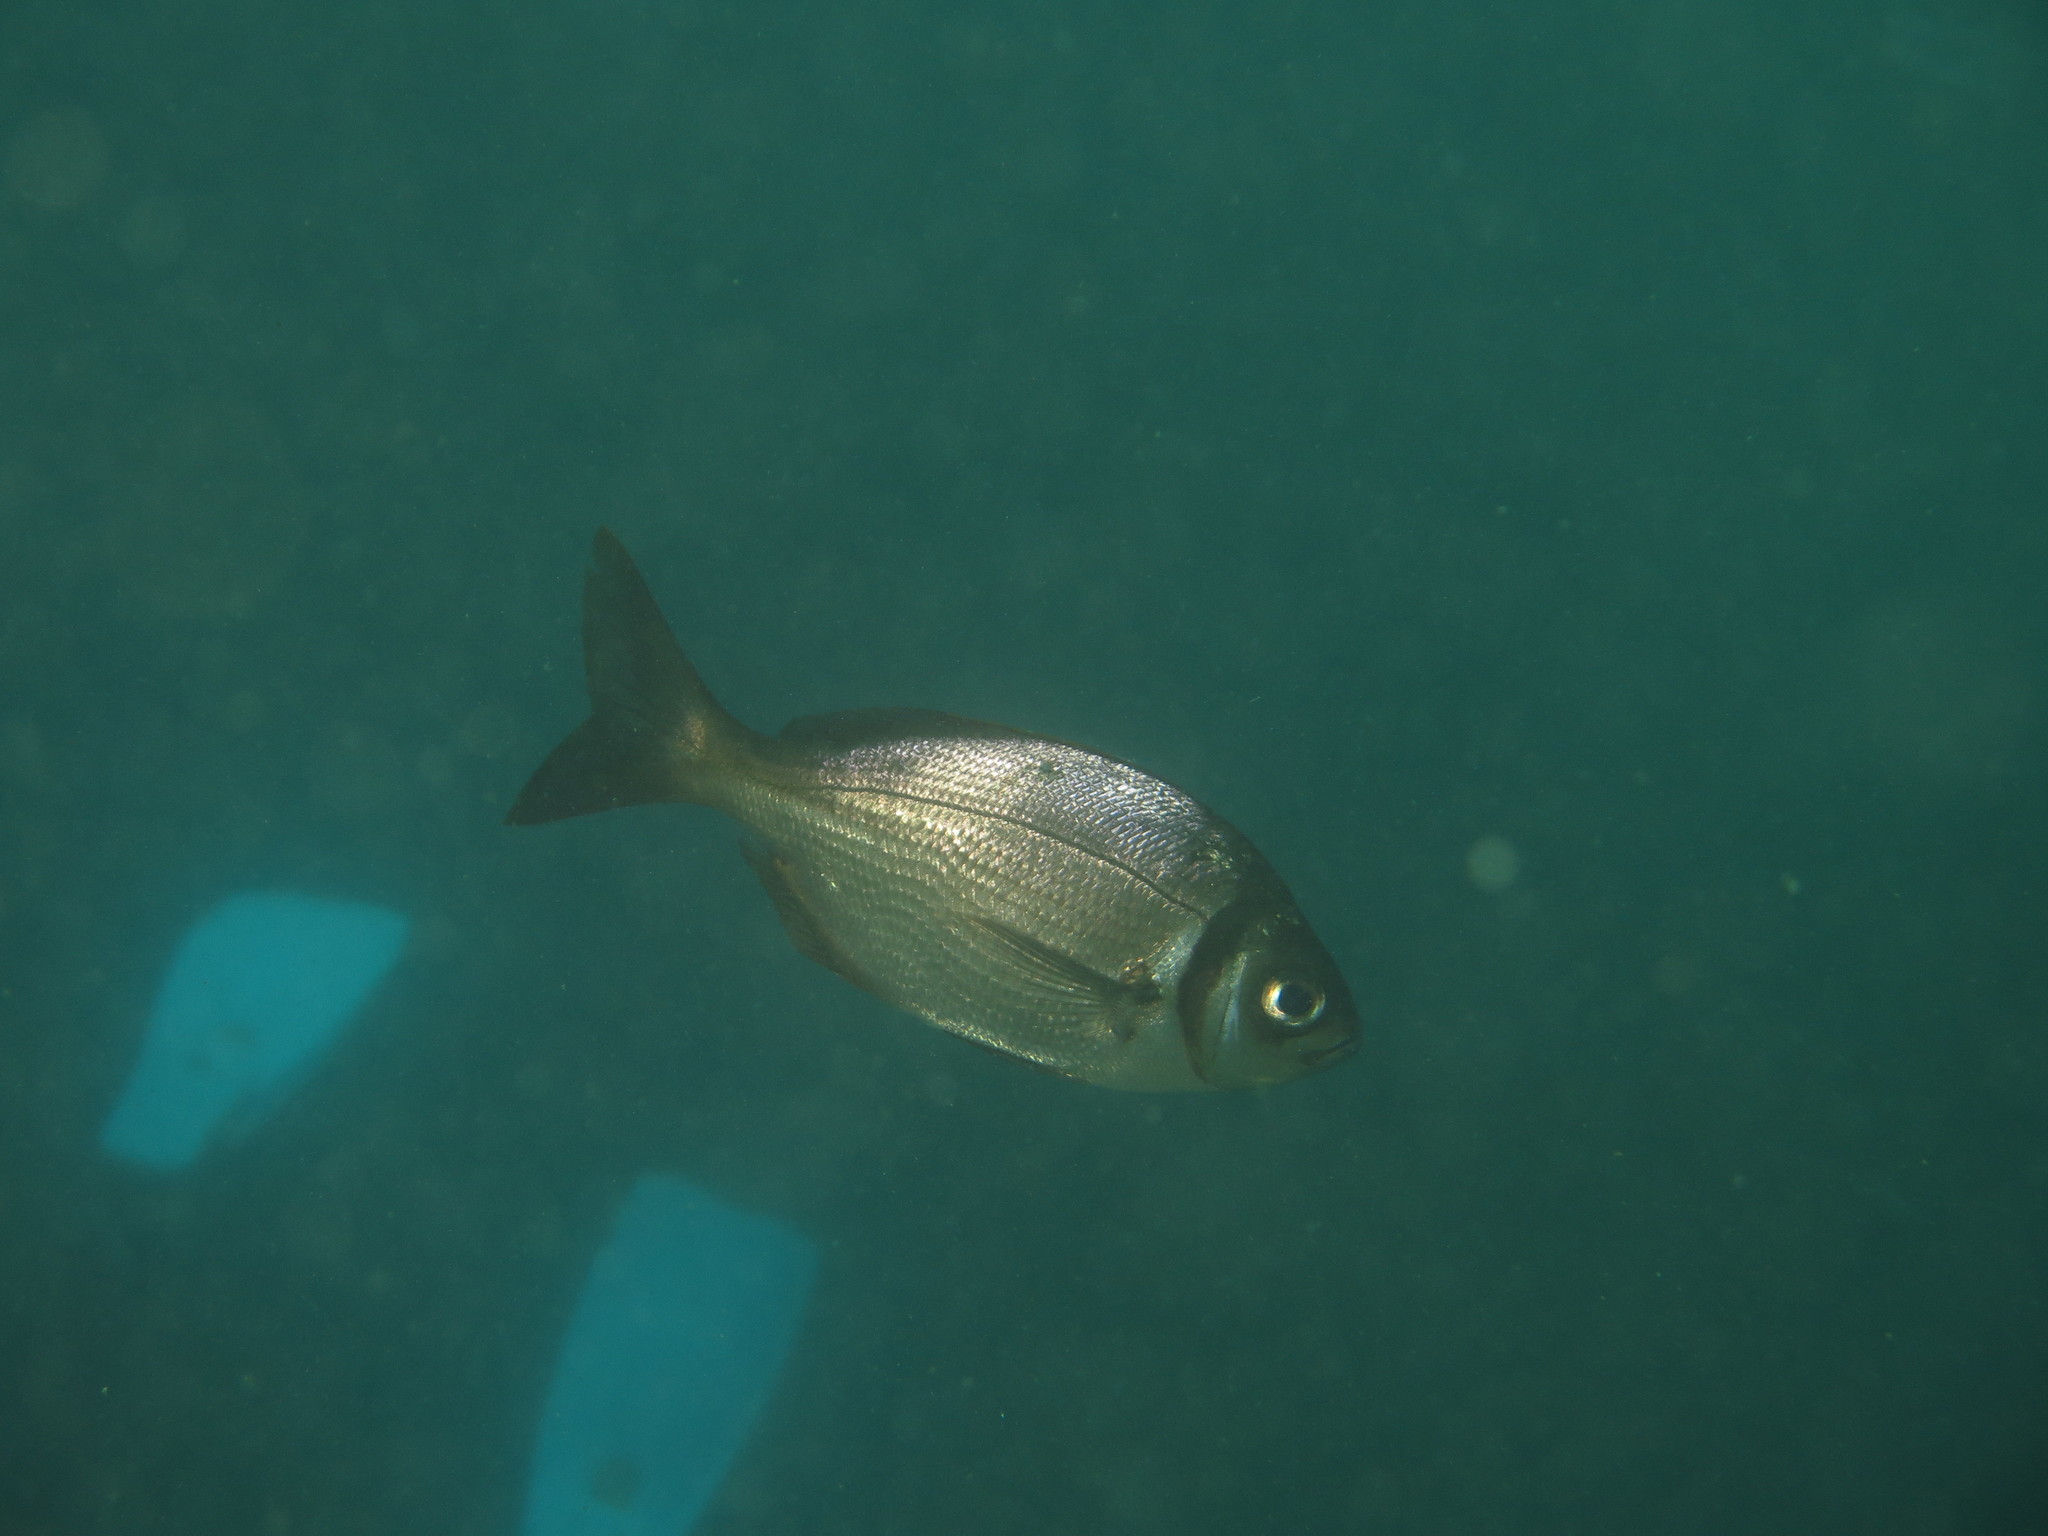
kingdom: Animalia
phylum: Chordata
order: Perciformes
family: Sparidae
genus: Boopsoidea
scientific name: Boopsoidea inornata
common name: Fransmadam
